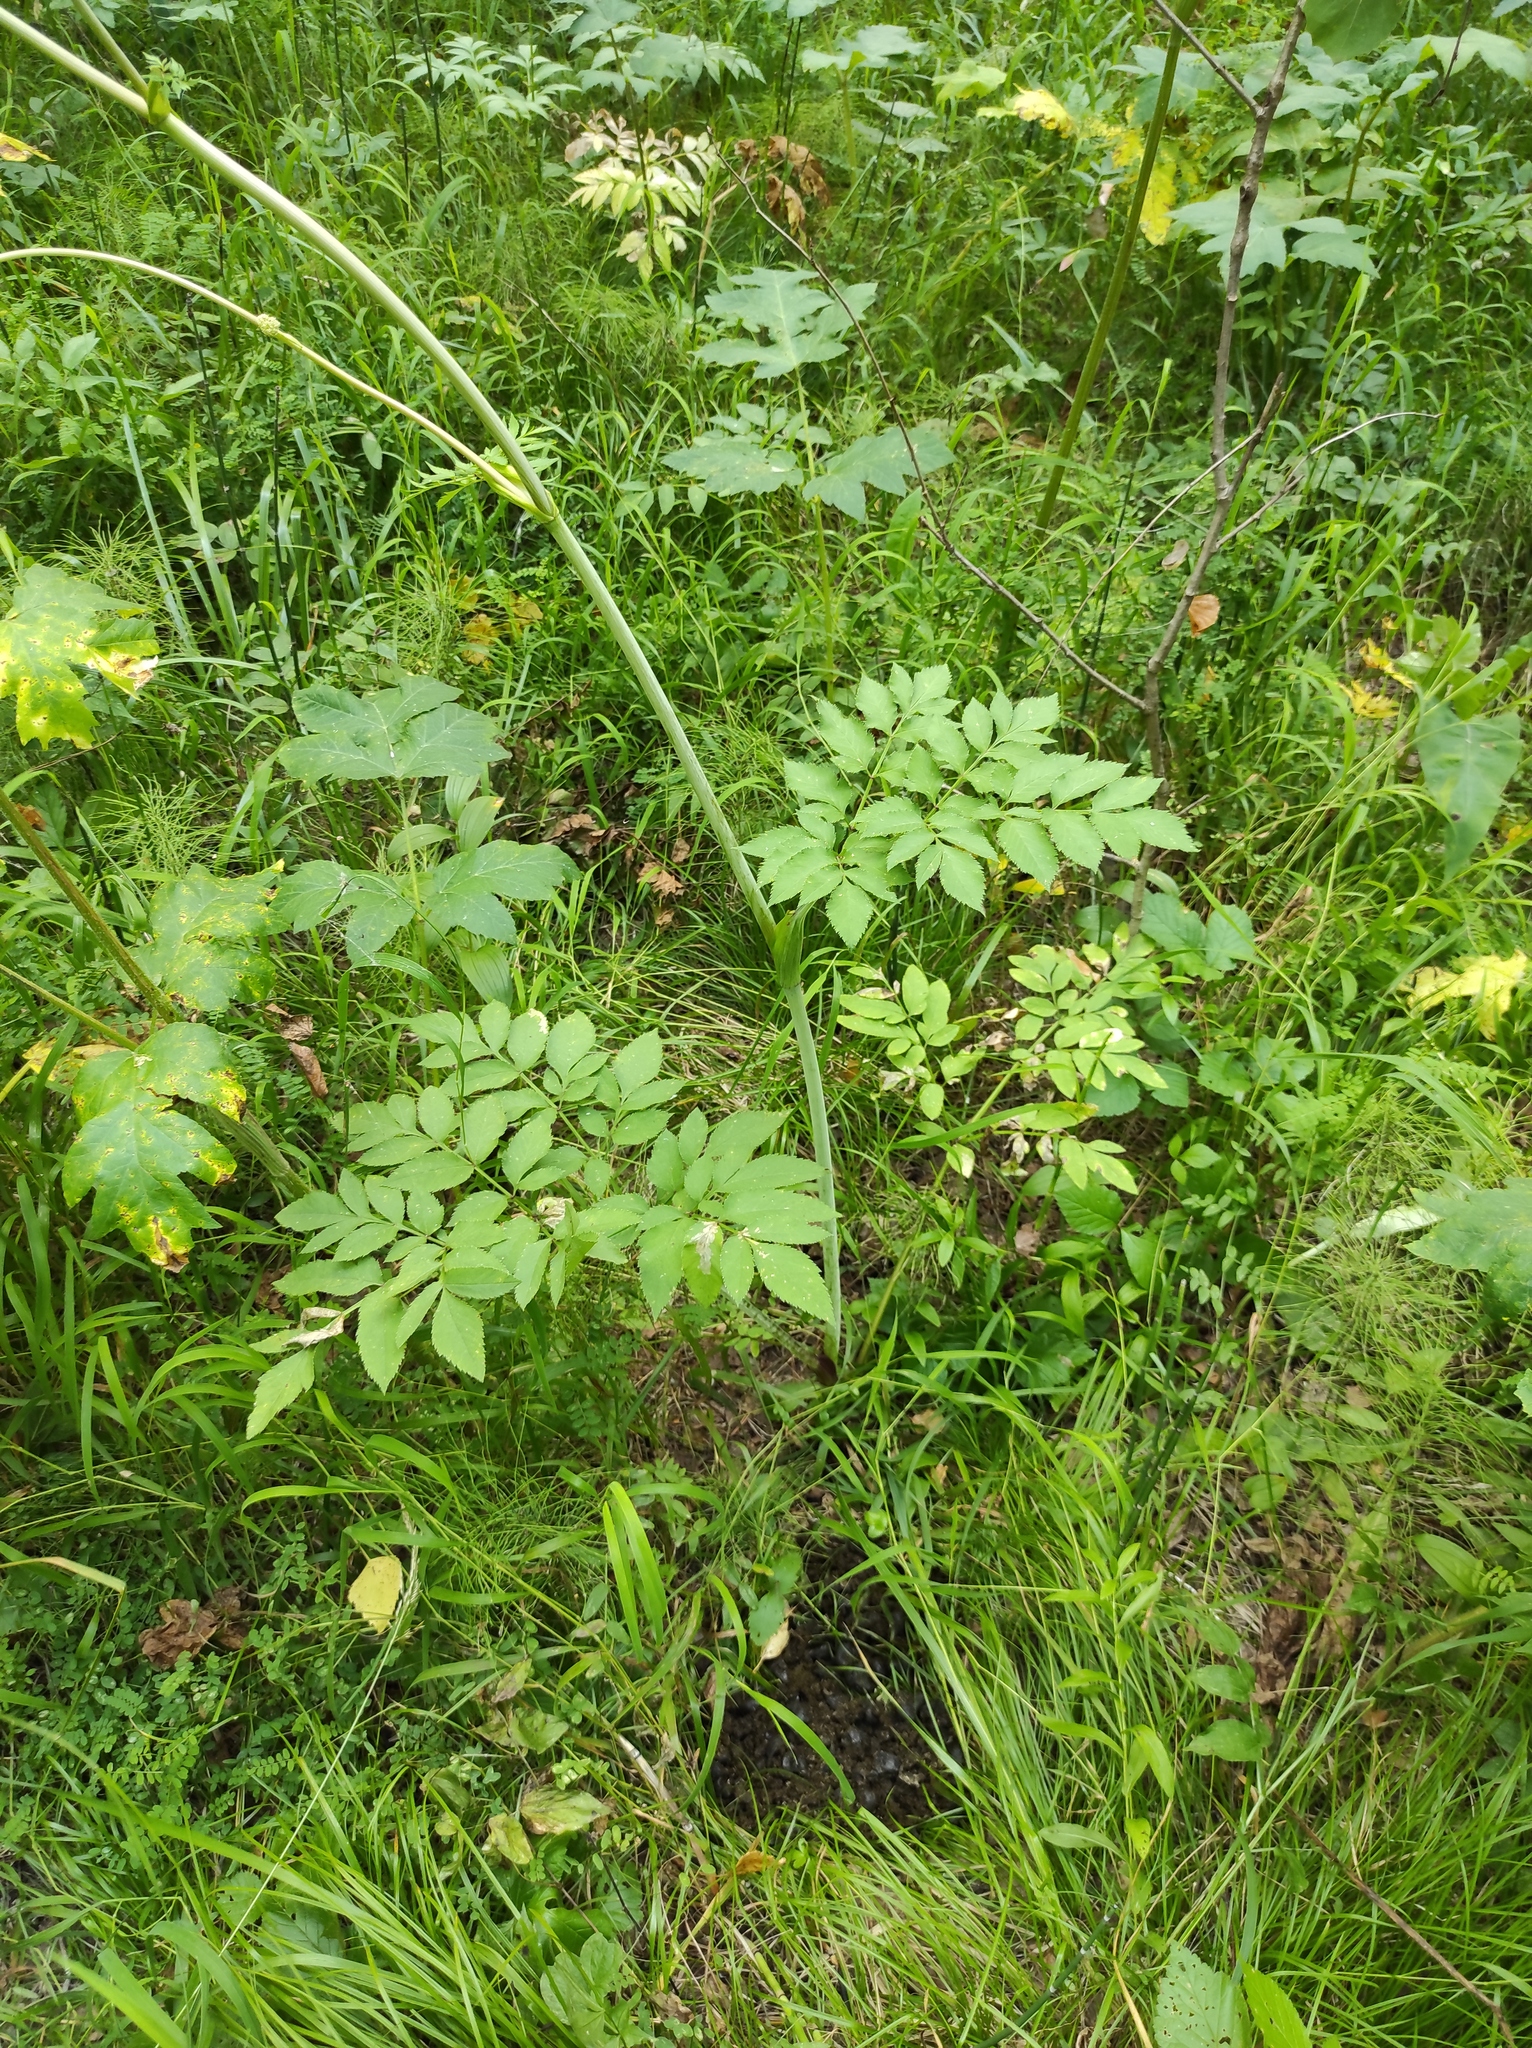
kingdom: Plantae
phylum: Tracheophyta
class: Magnoliopsida
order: Apiales
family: Apiaceae
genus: Angelica
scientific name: Angelica sylvestris
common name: Wild angelica
